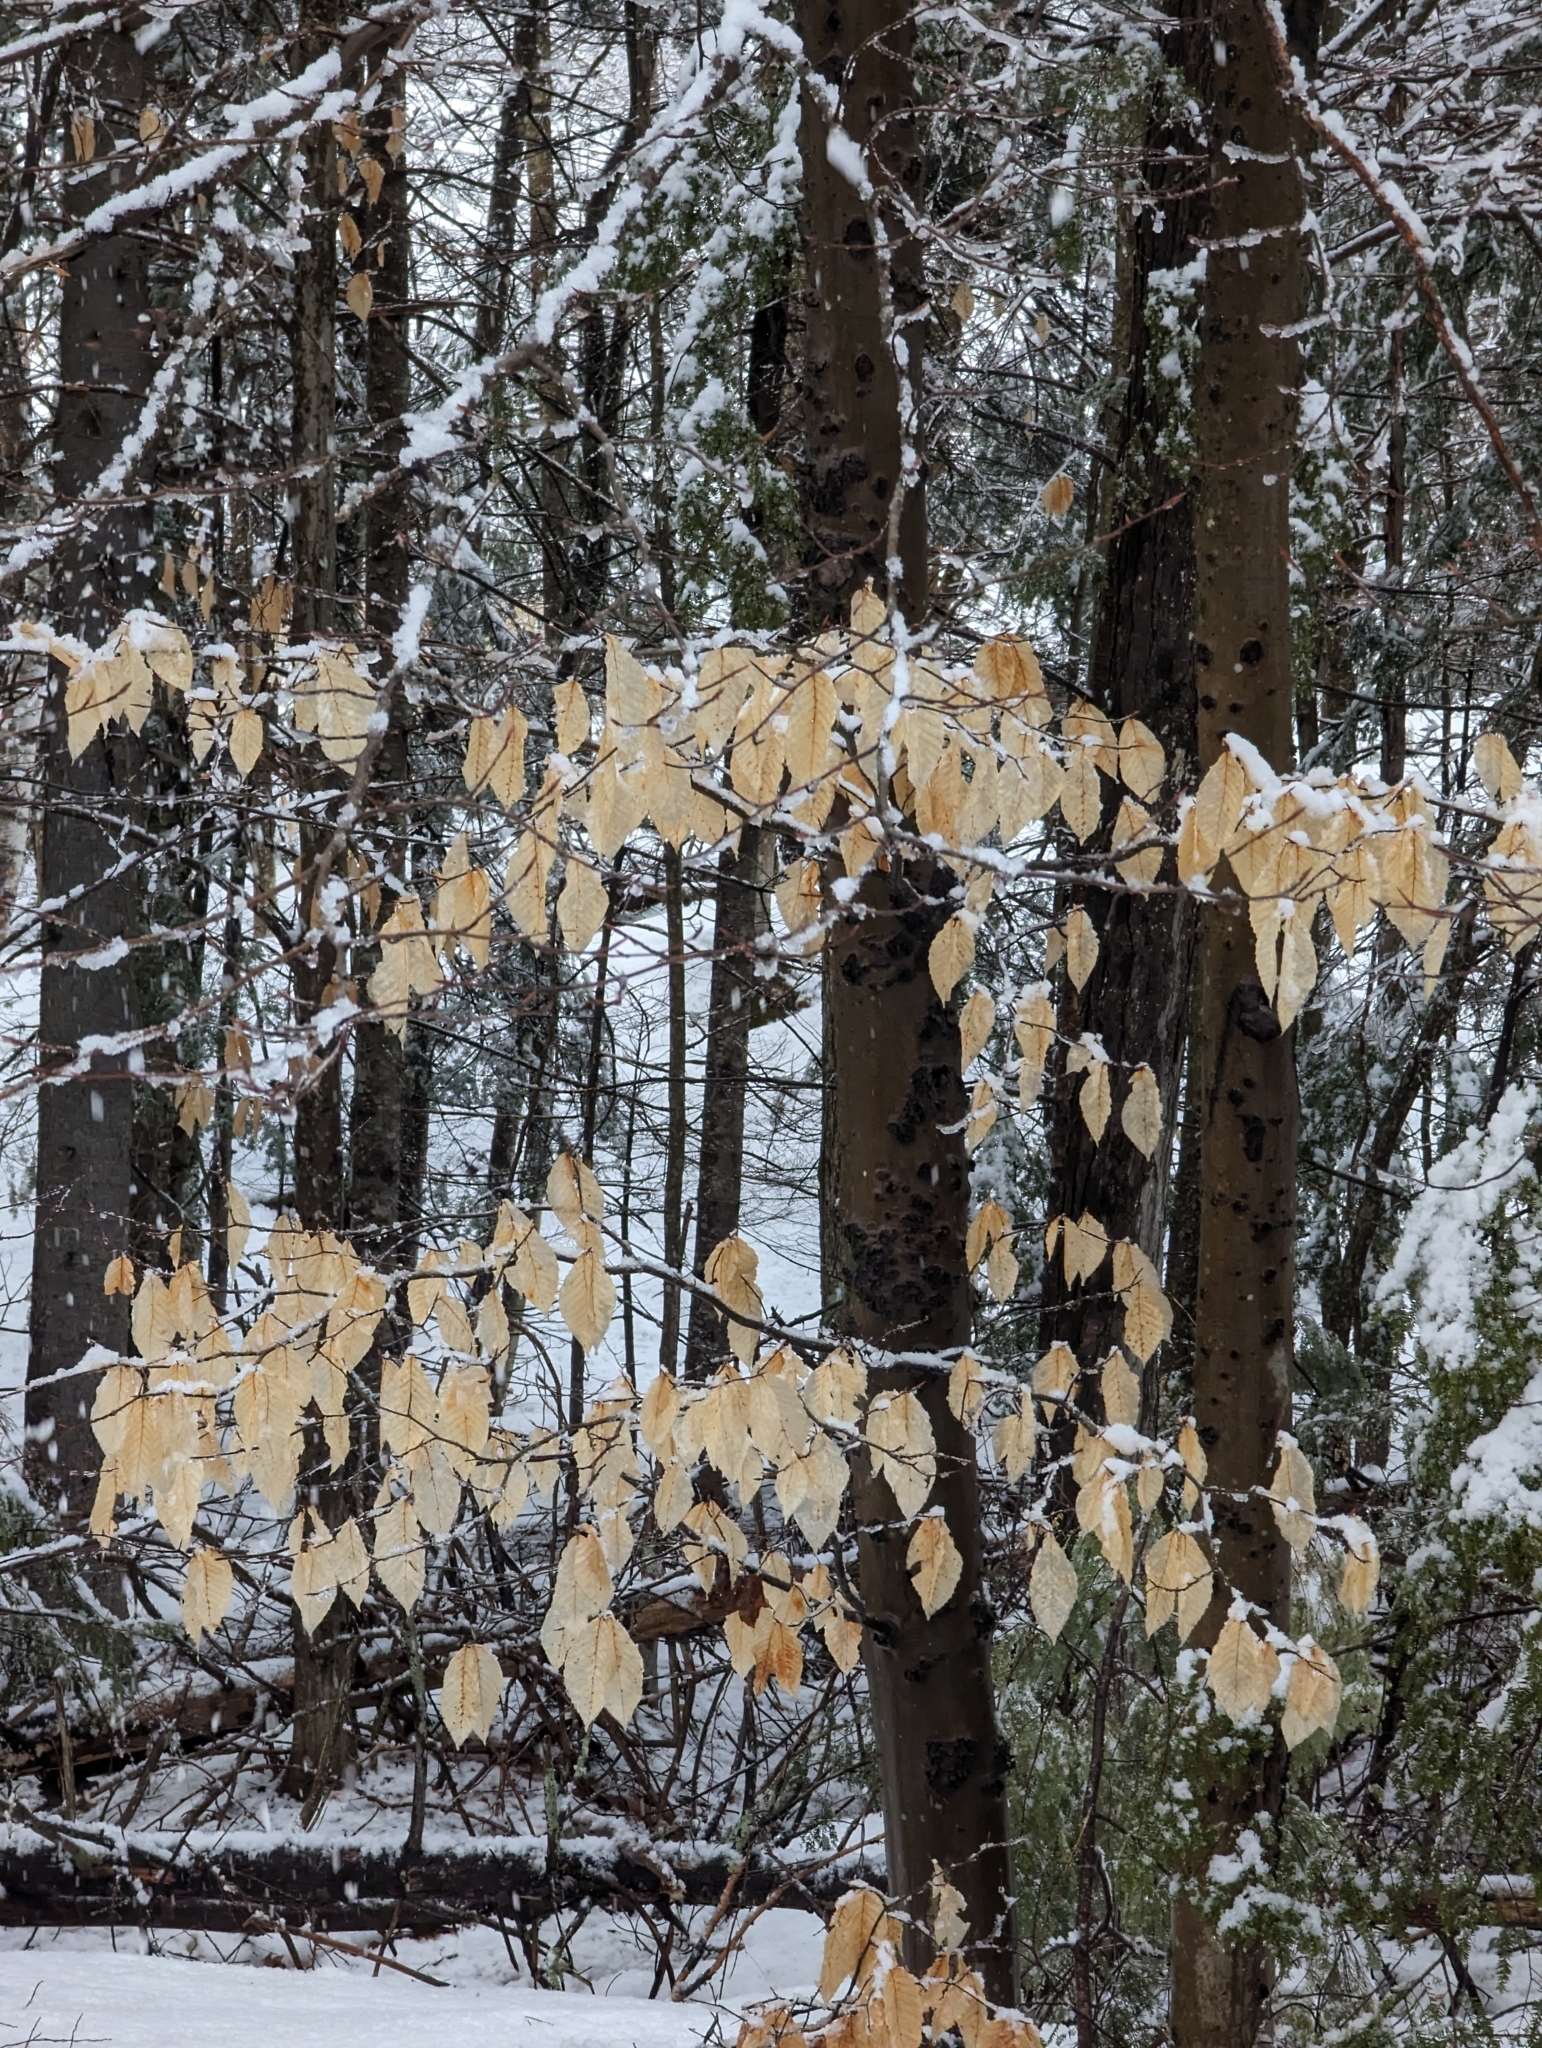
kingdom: Plantae
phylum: Tracheophyta
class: Magnoliopsida
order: Fagales
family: Fagaceae
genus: Fagus
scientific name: Fagus grandifolia
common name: American beech
